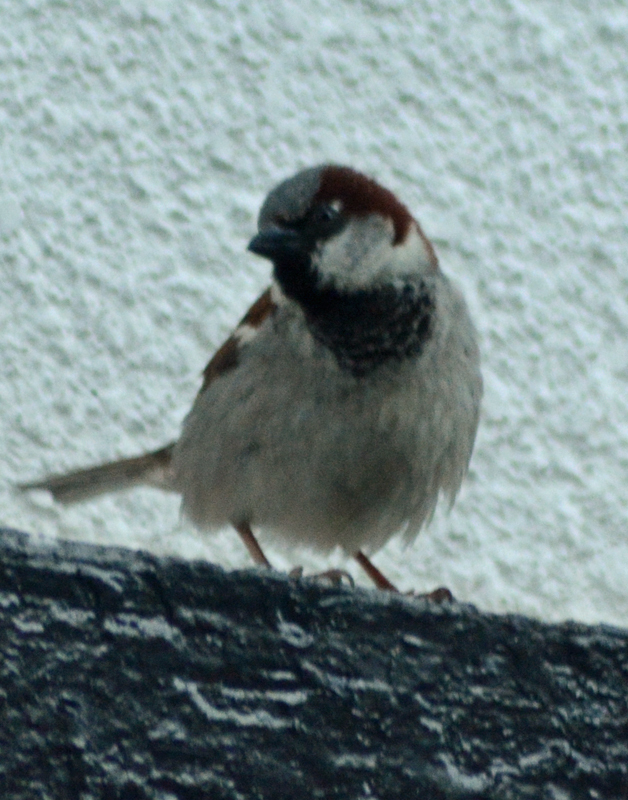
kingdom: Animalia
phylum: Chordata
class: Aves
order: Passeriformes
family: Passeridae
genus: Passer
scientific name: Passer domesticus
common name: House sparrow
